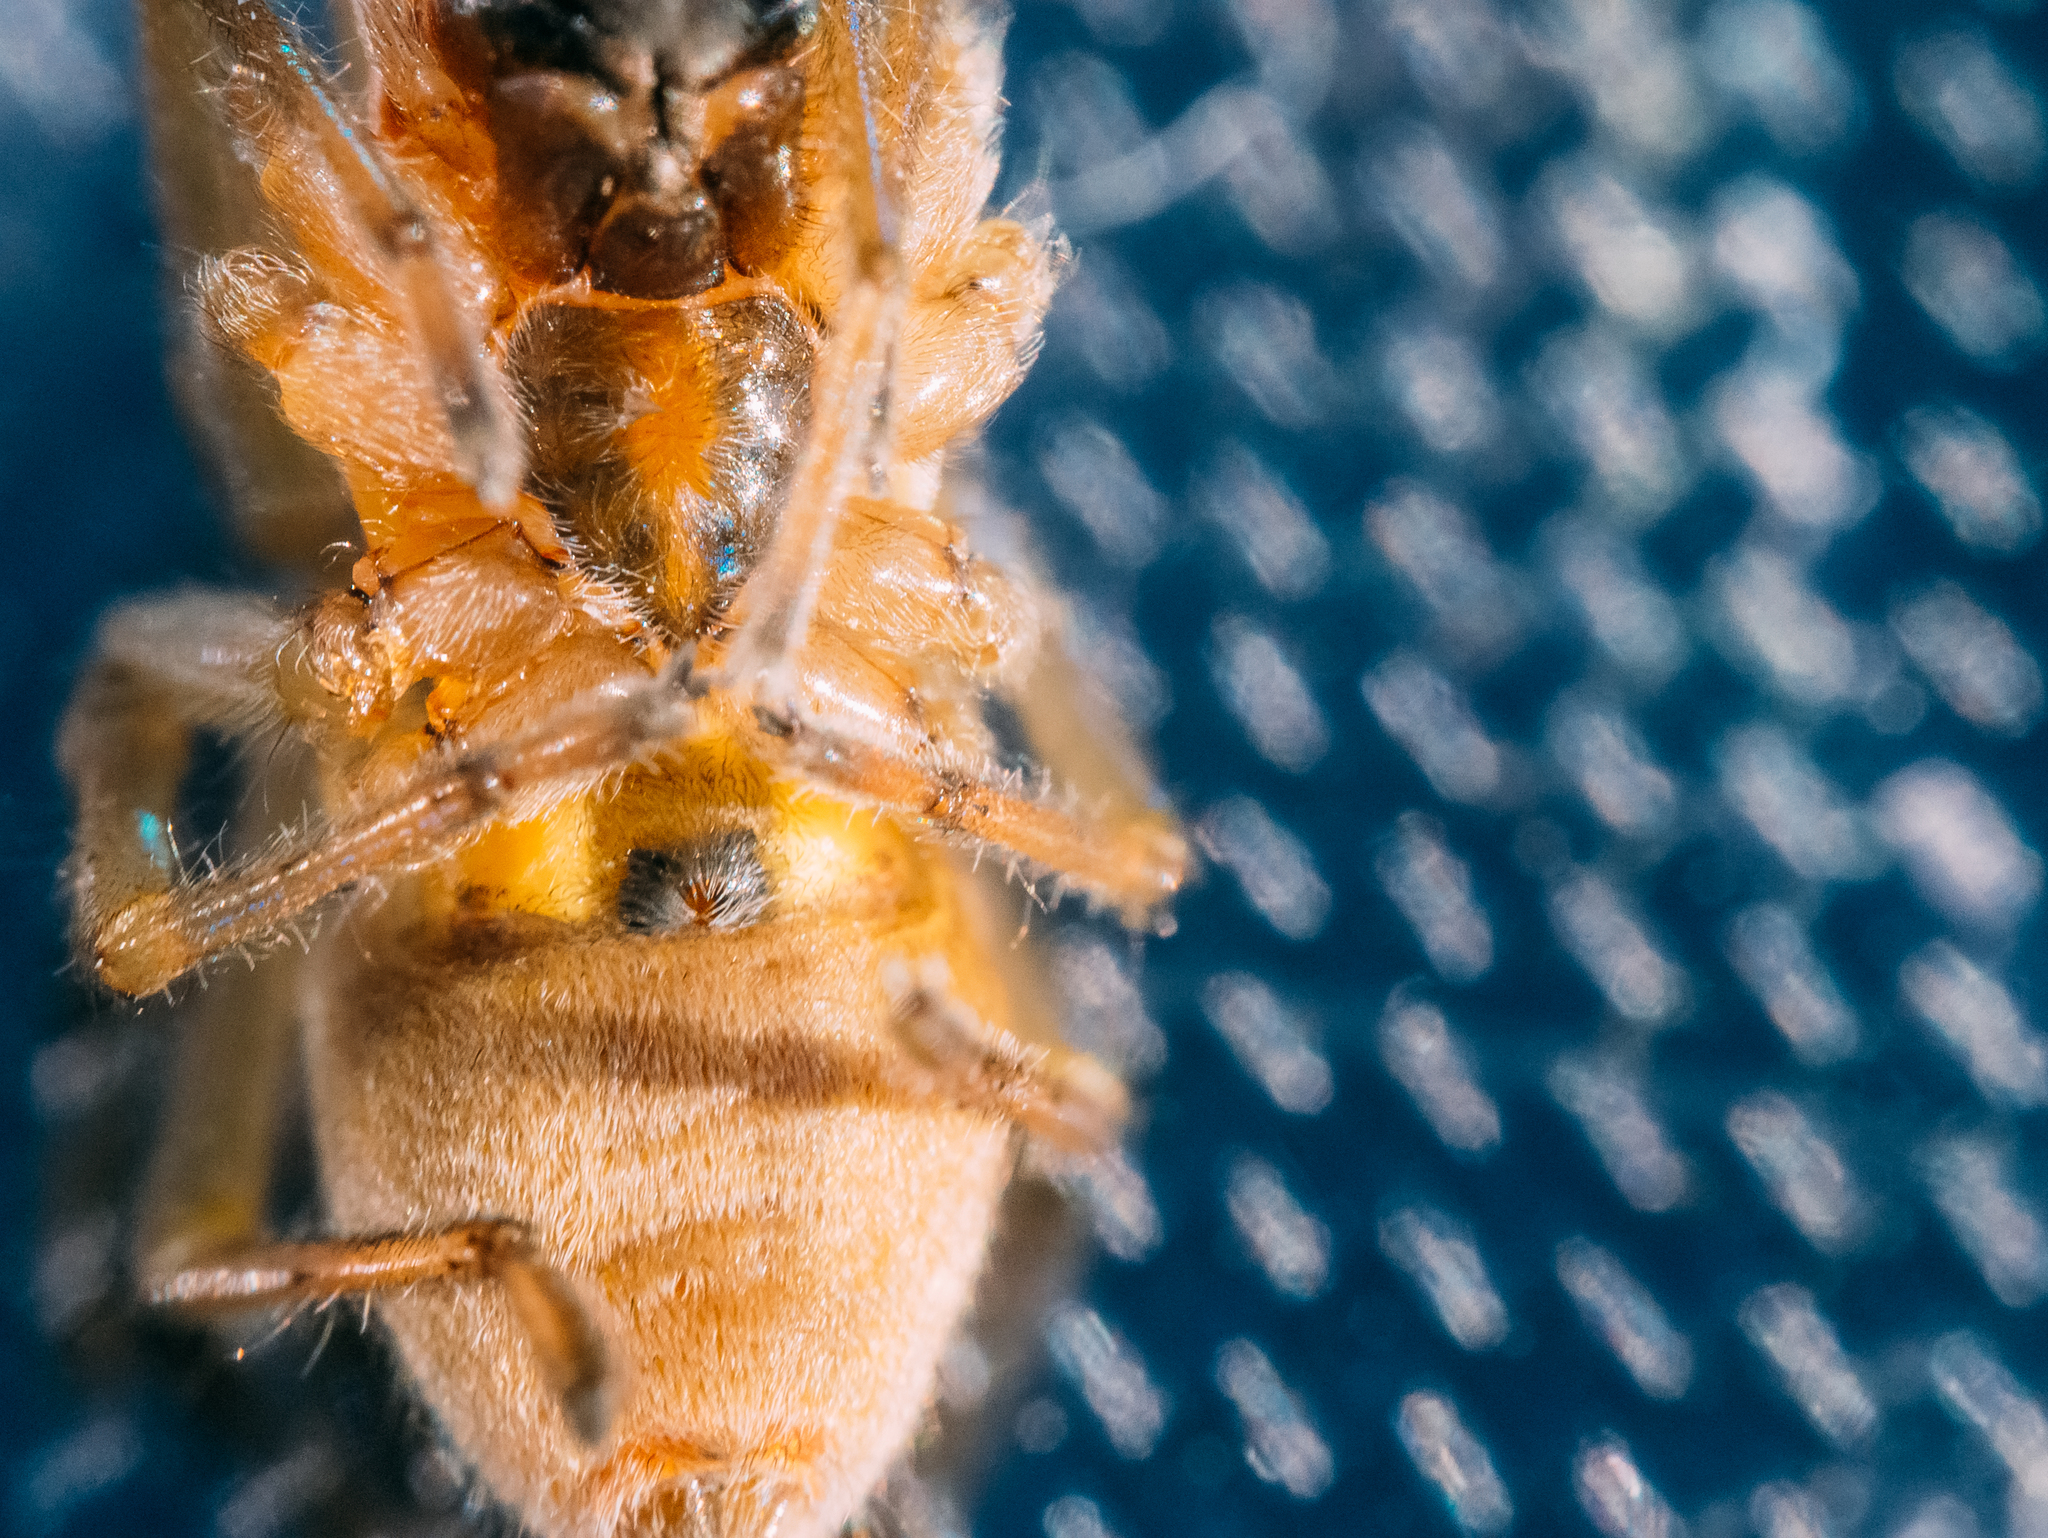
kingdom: Animalia
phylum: Arthropoda
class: Arachnida
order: Araneae
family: Cheiracanthiidae
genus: Cheiracanthium
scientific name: Cheiracanthium erraticum
